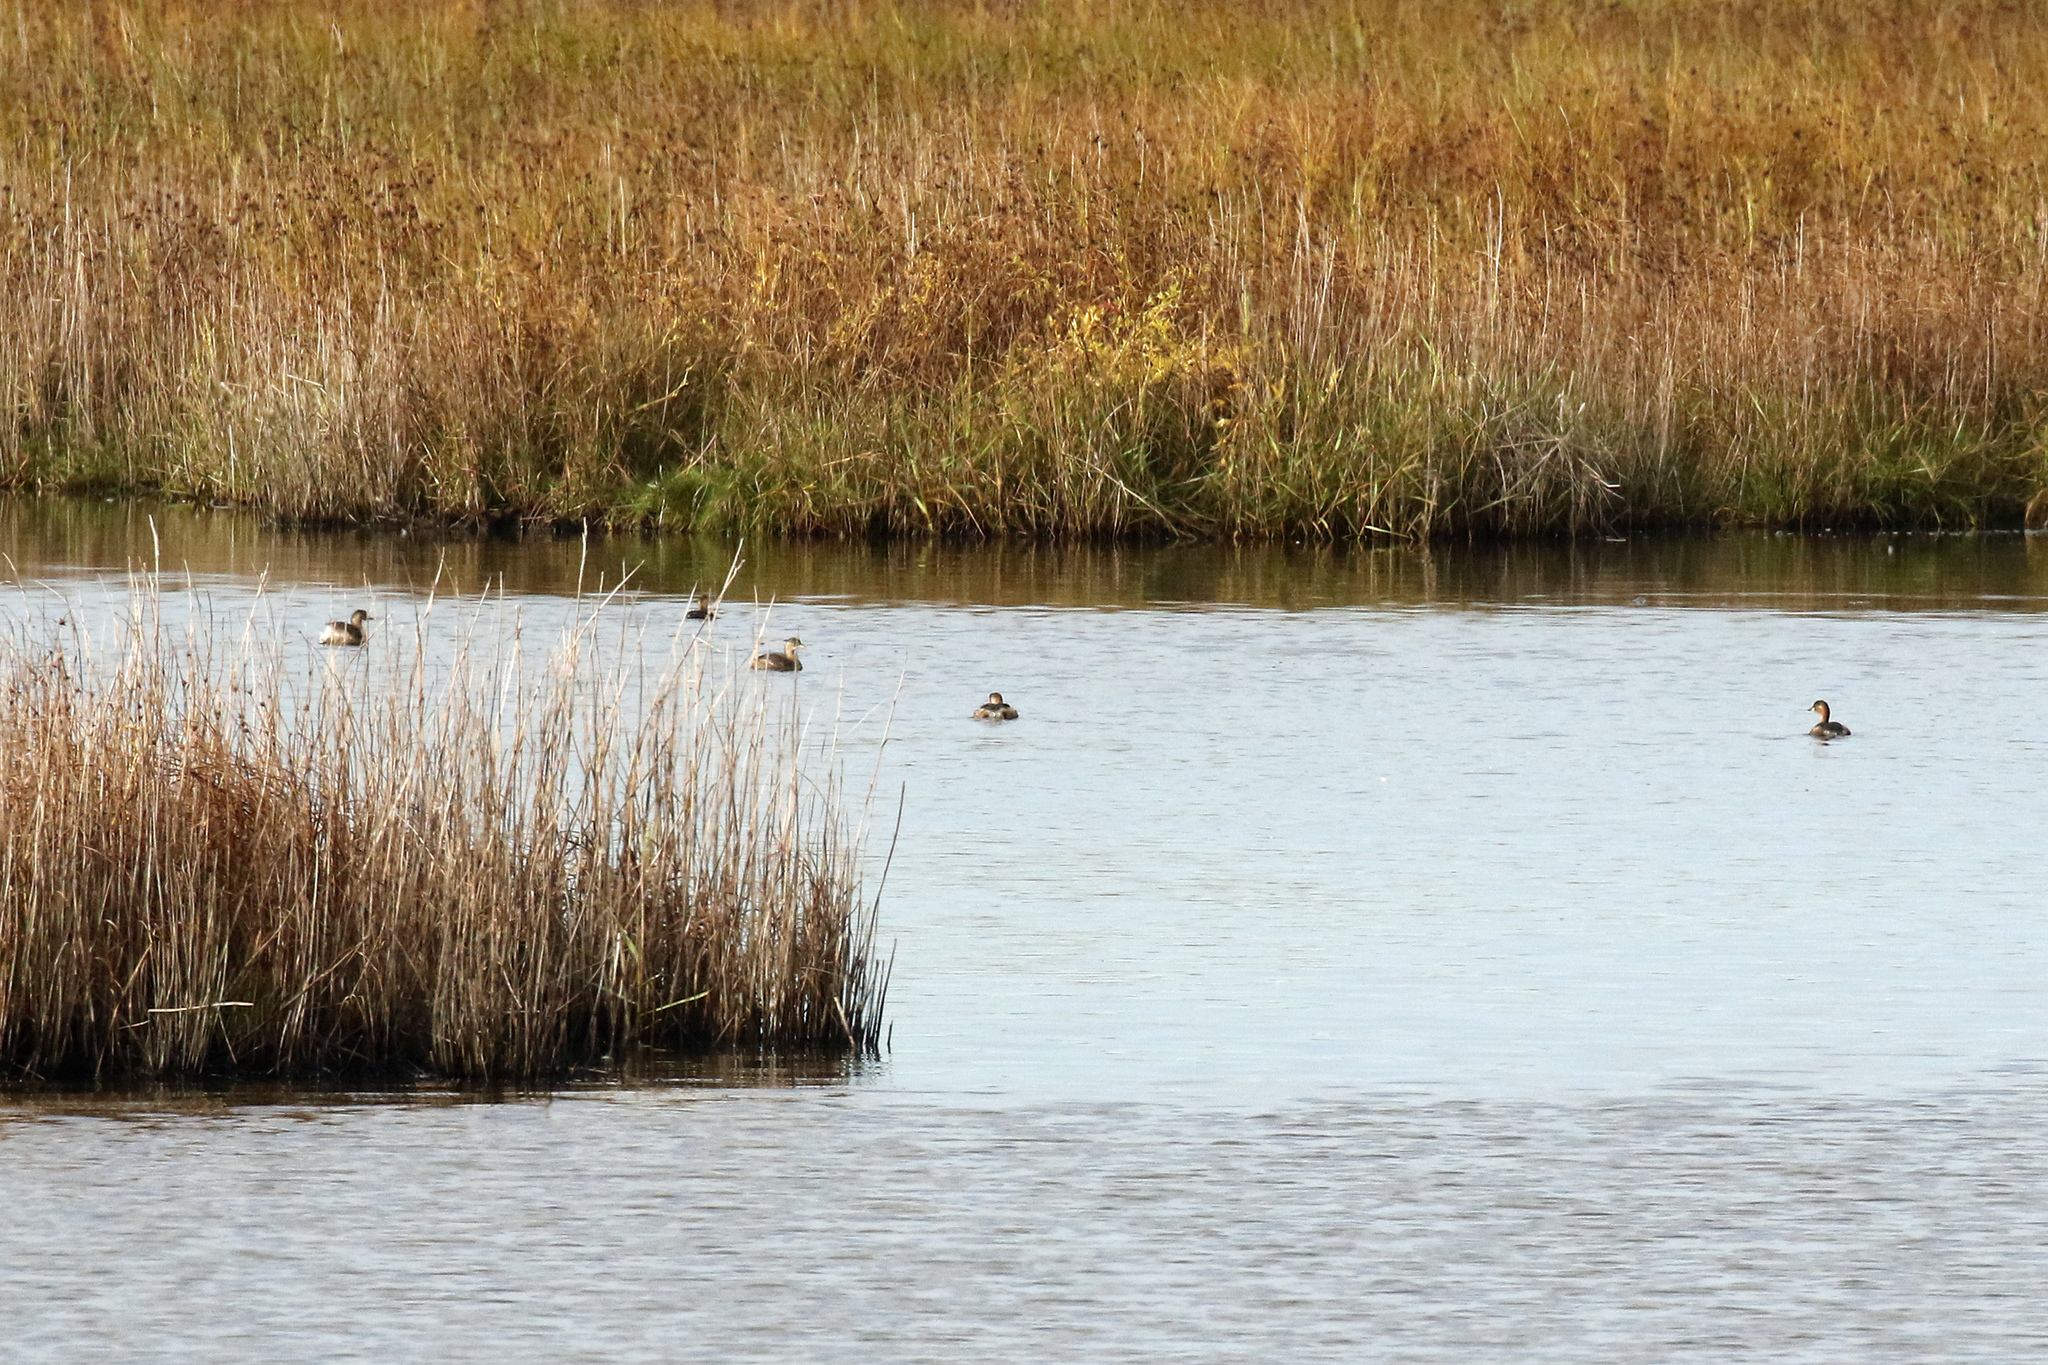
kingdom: Animalia
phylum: Chordata
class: Aves
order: Podicipediformes
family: Podicipedidae
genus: Tachybaptus
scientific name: Tachybaptus ruficollis
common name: Little grebe
